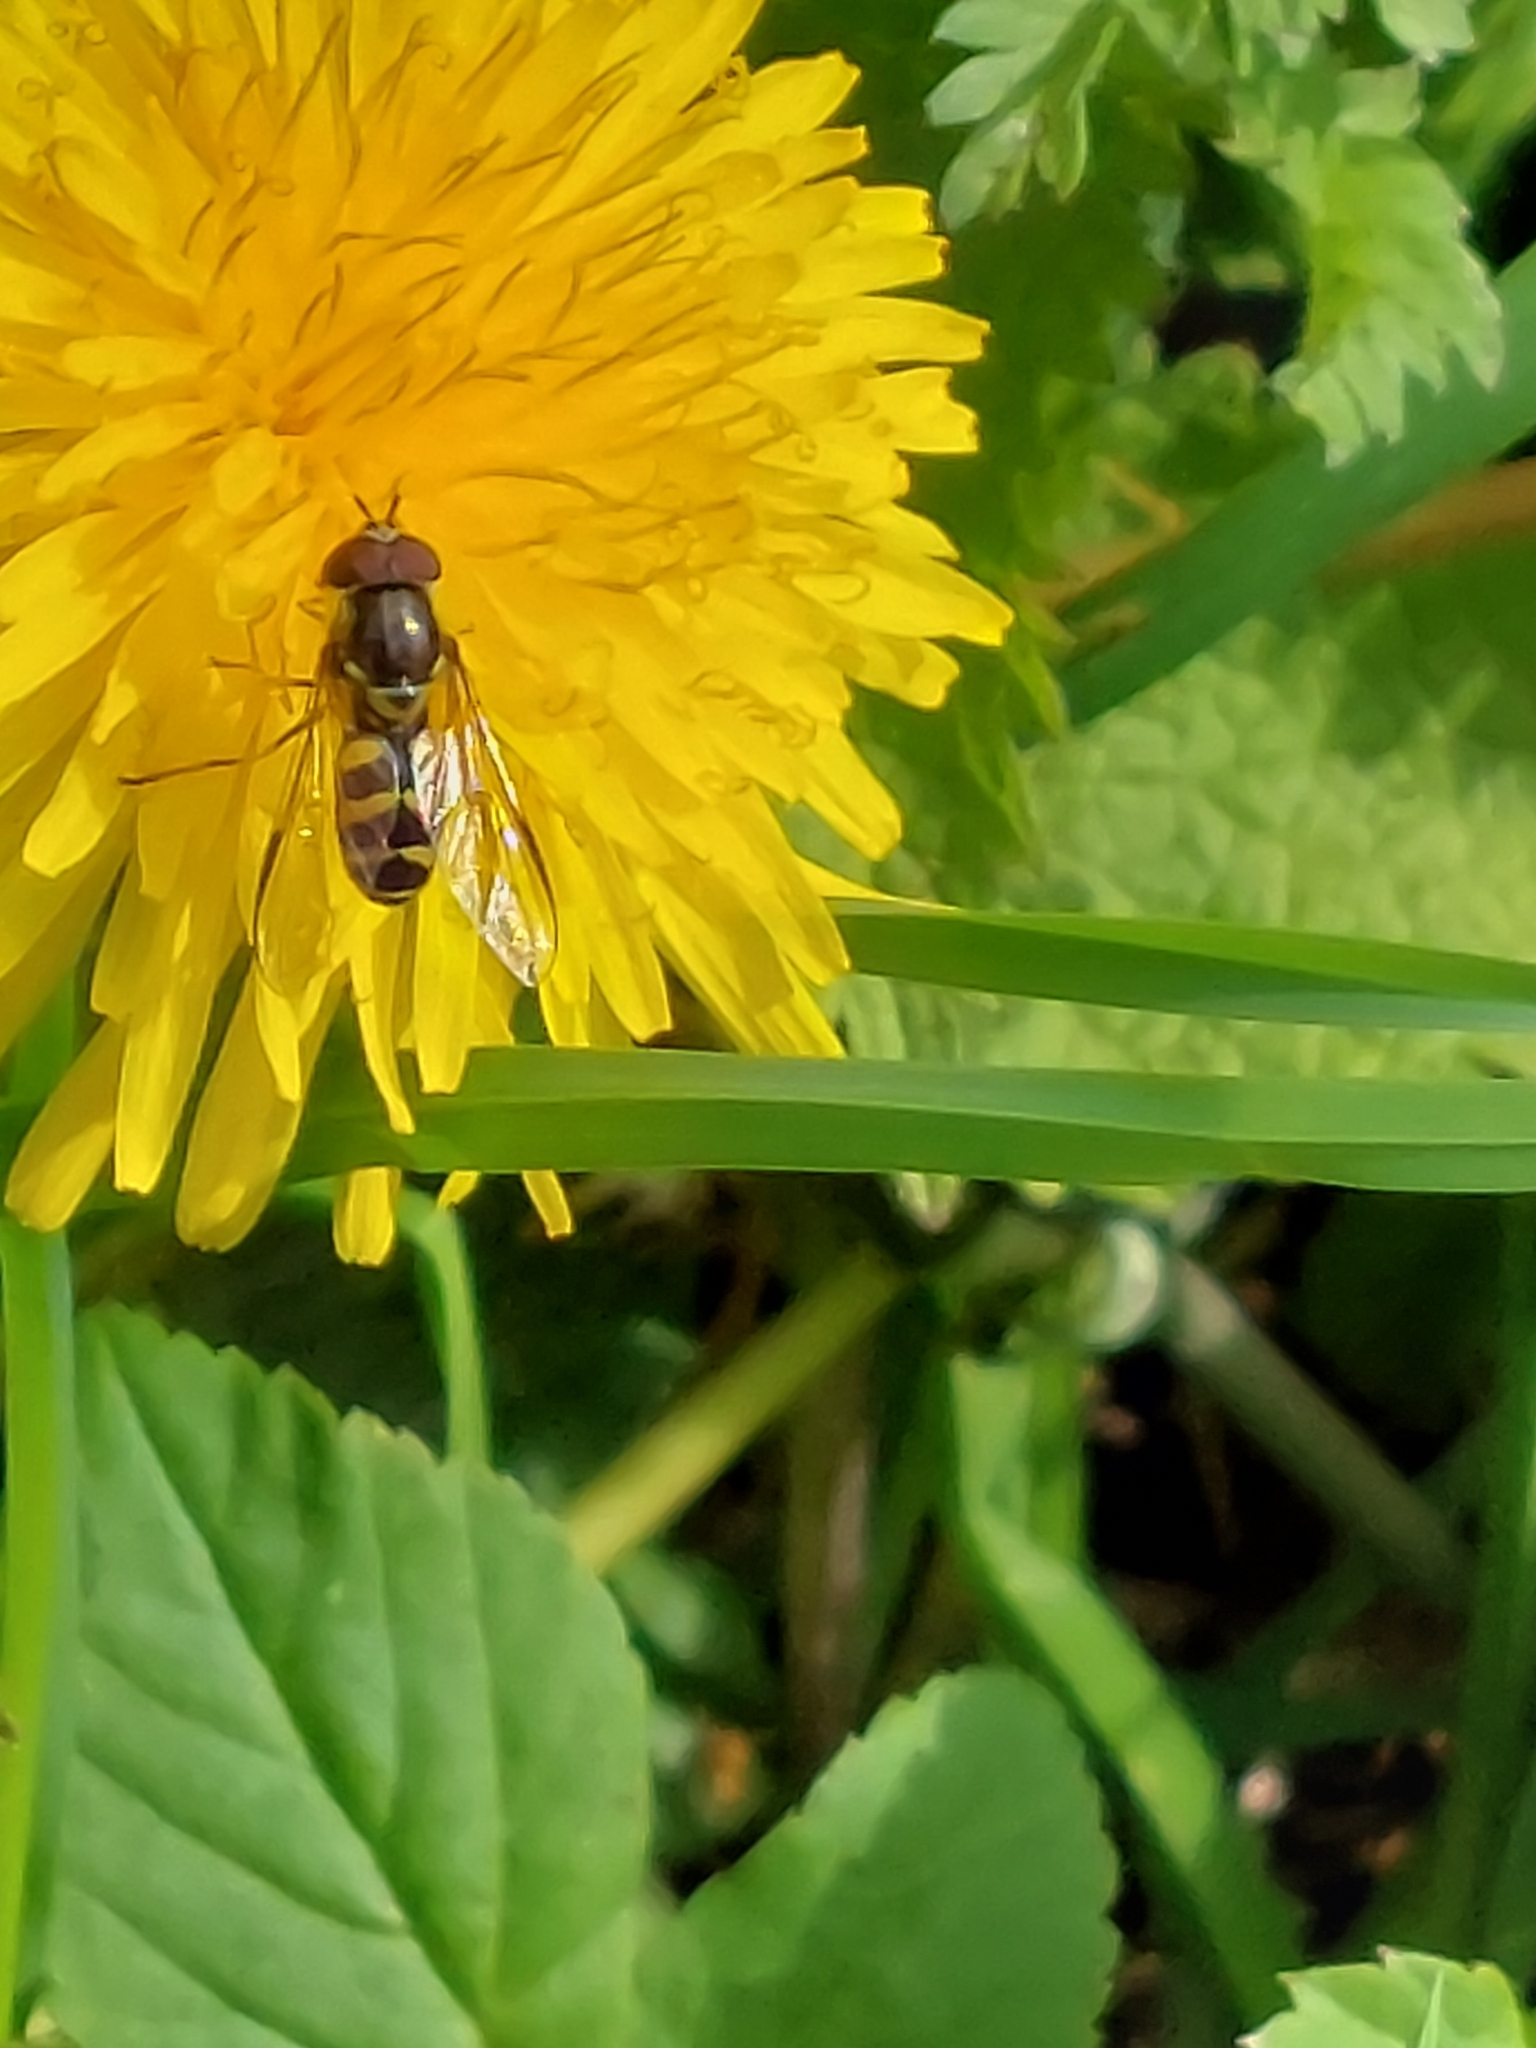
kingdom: Animalia
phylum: Arthropoda
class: Insecta
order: Diptera
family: Syrphidae
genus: Dasysyrphus
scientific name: Dasysyrphus albostriatus
